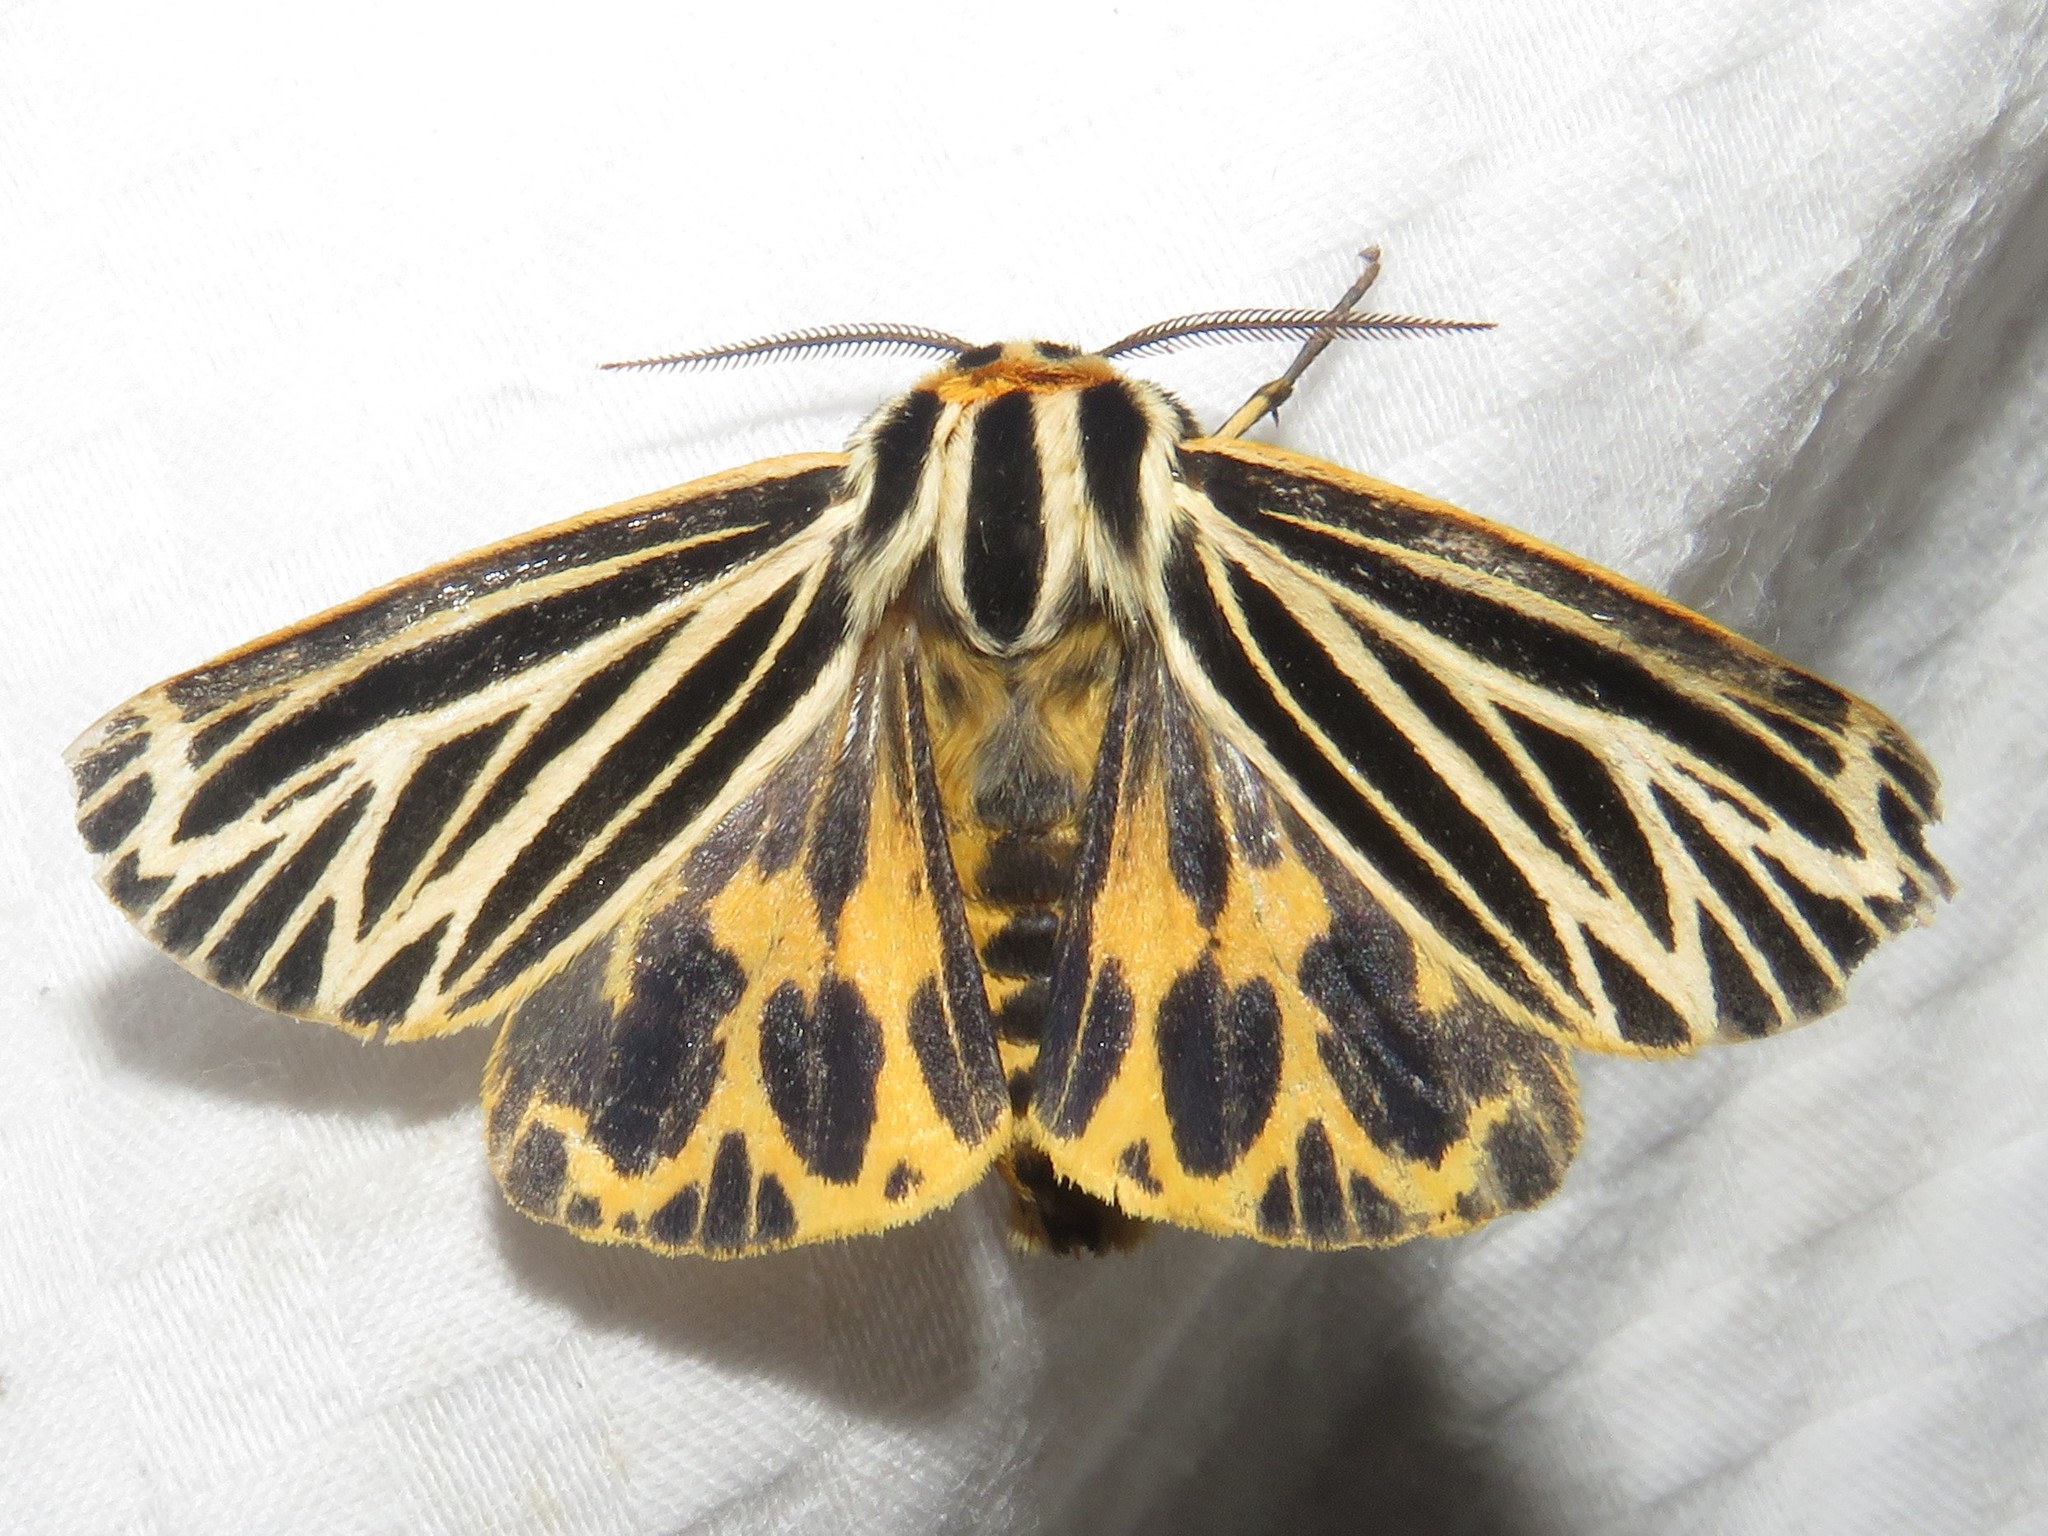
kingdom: Animalia
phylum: Arthropoda
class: Insecta
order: Lepidoptera
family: Erebidae
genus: Grammia
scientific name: Grammia virguncula
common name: Little tiger moth
